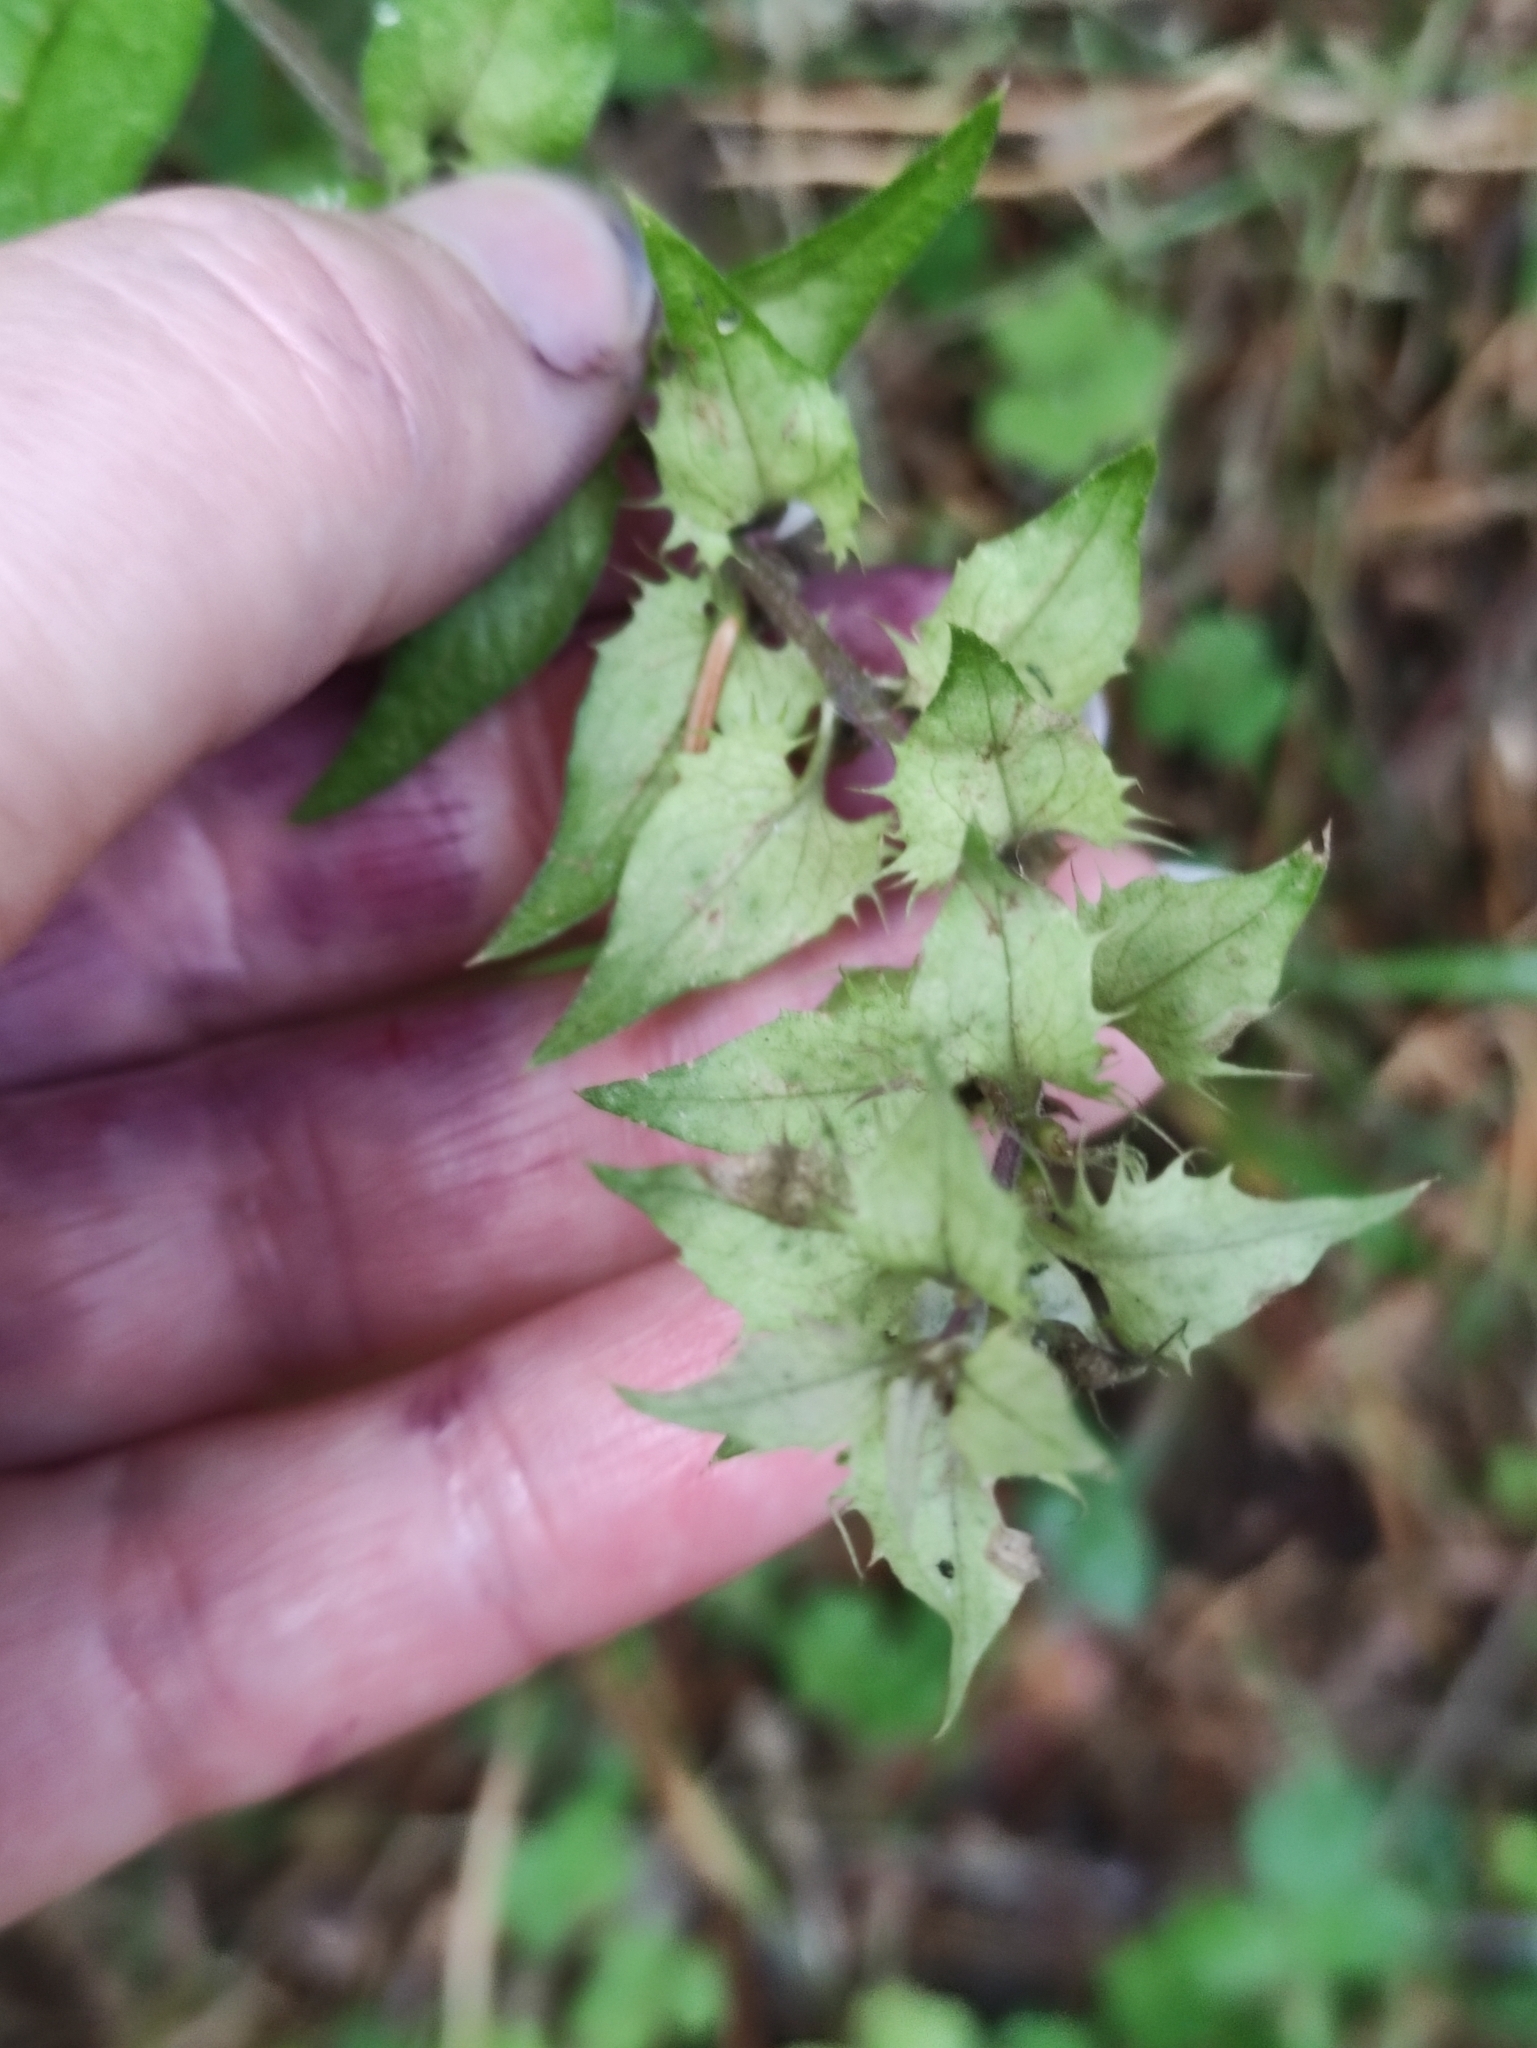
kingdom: Plantae
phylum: Tracheophyta
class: Magnoliopsida
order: Lamiales
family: Orobanchaceae
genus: Melampyrum
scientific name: Melampyrum nemorosum
